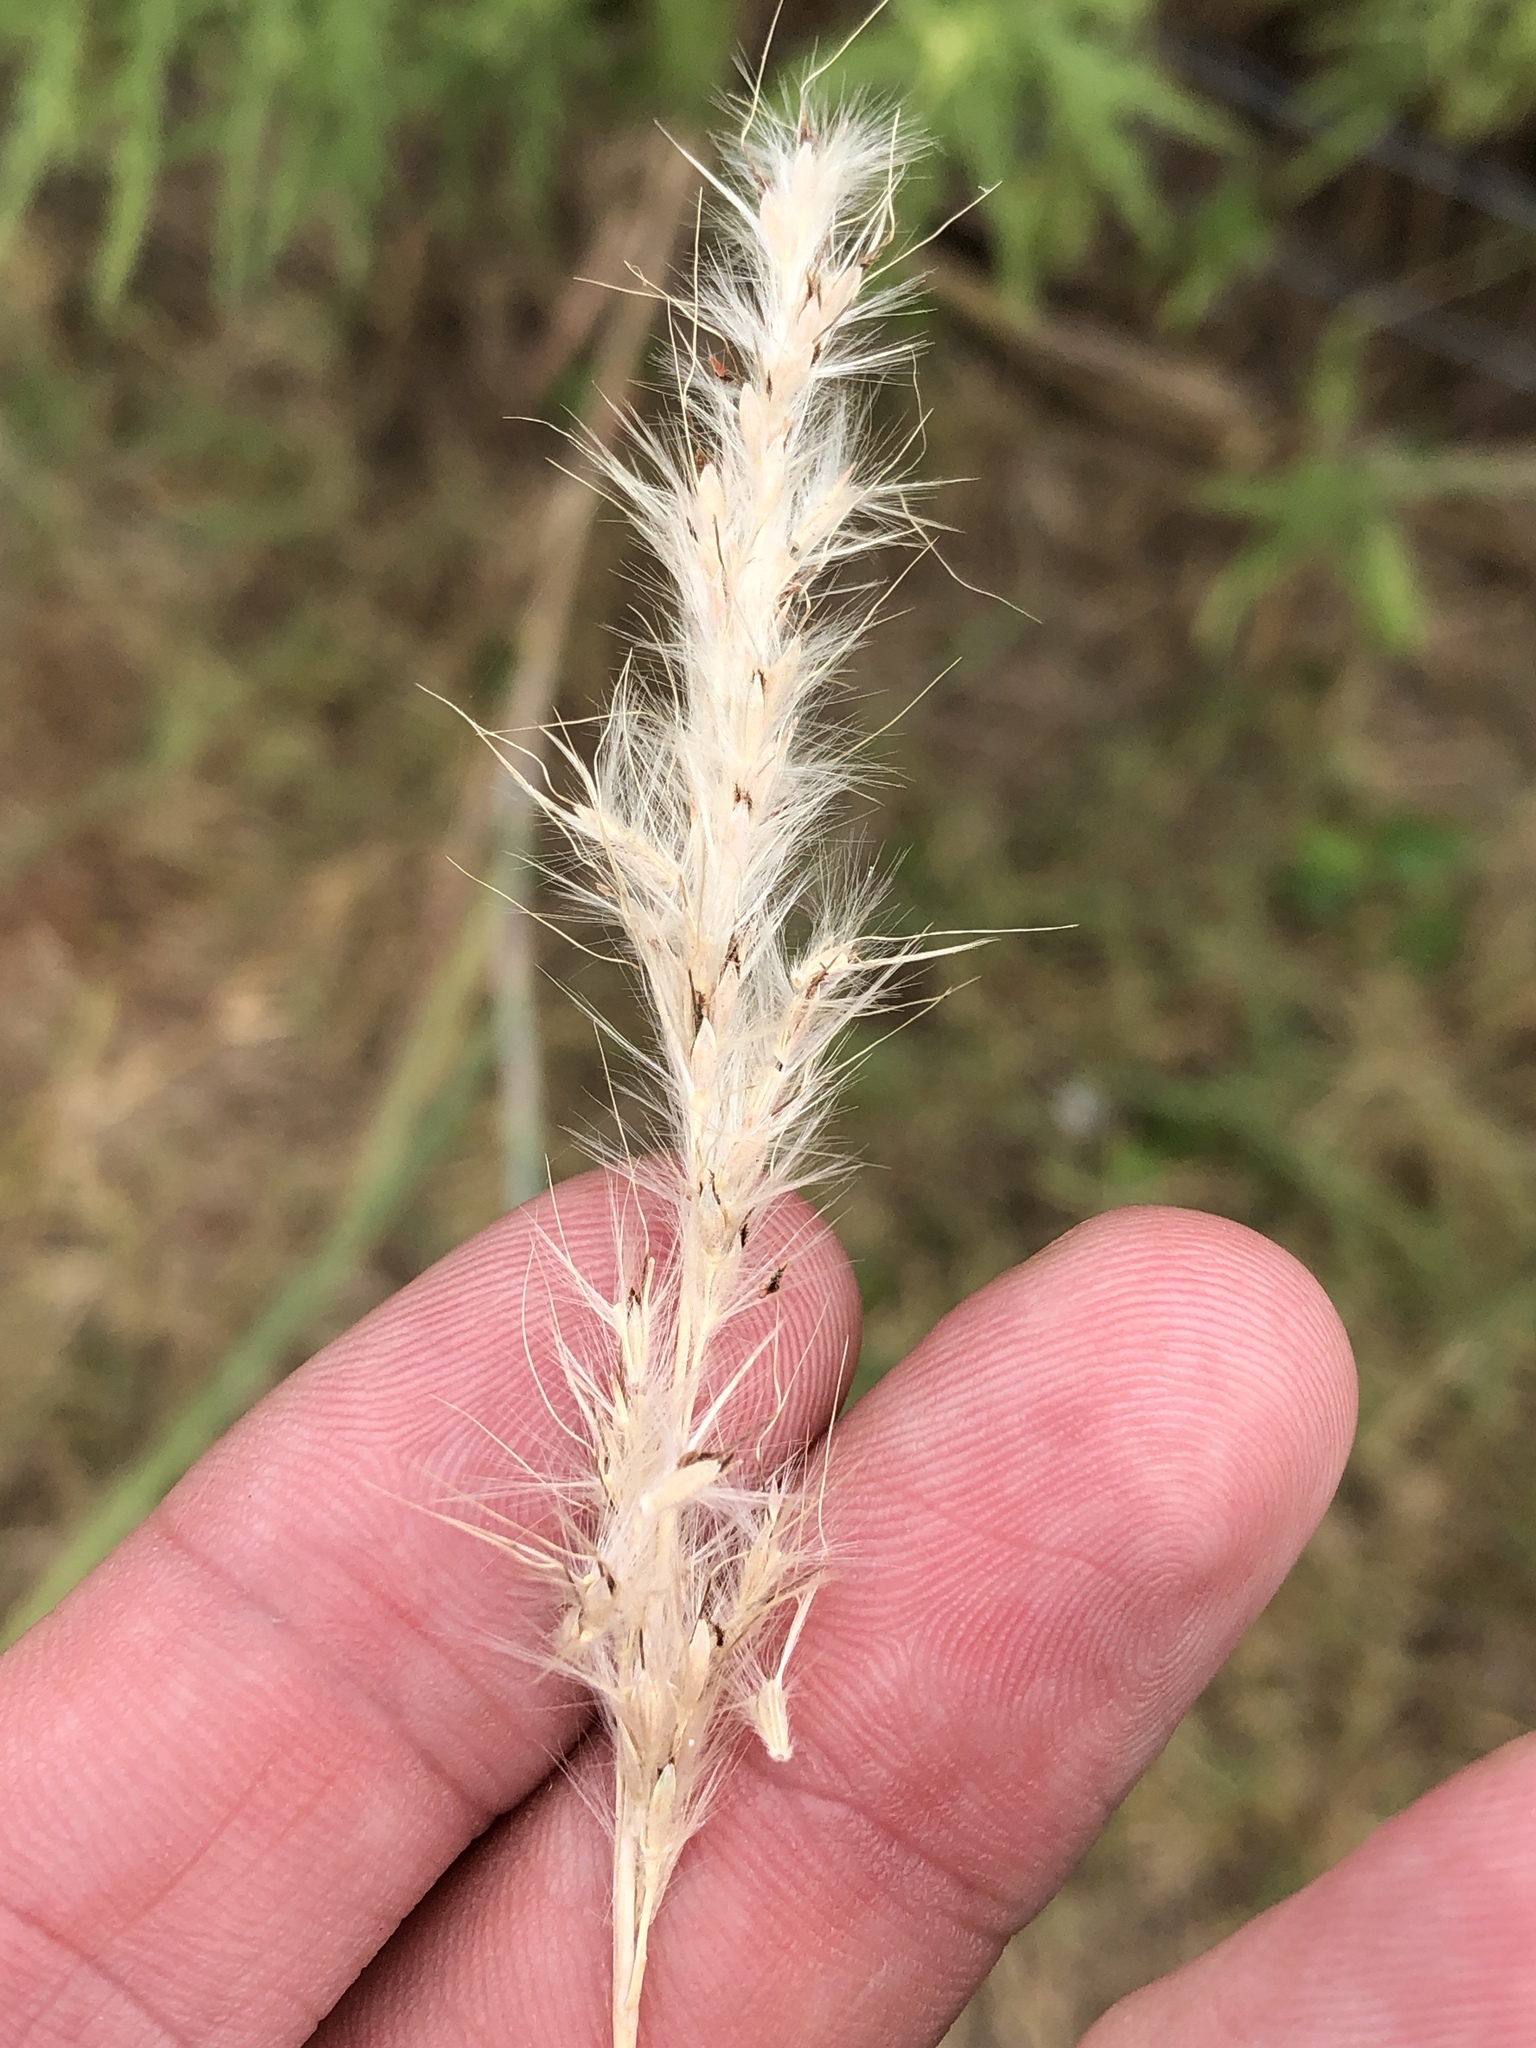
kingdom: Plantae
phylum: Tracheophyta
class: Liliopsida
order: Poales
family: Poaceae
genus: Bothriochloa
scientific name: Bothriochloa torreyana
